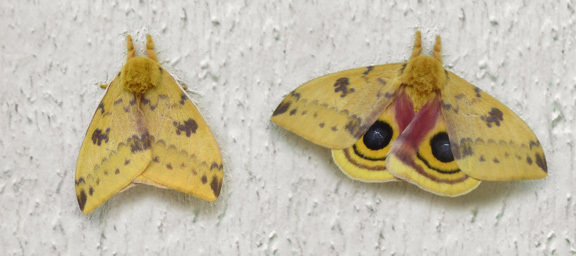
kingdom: Animalia
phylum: Arthropoda
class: Insecta
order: Lepidoptera
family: Saturniidae
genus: Automeris
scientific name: Automeris io
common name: Io moth
